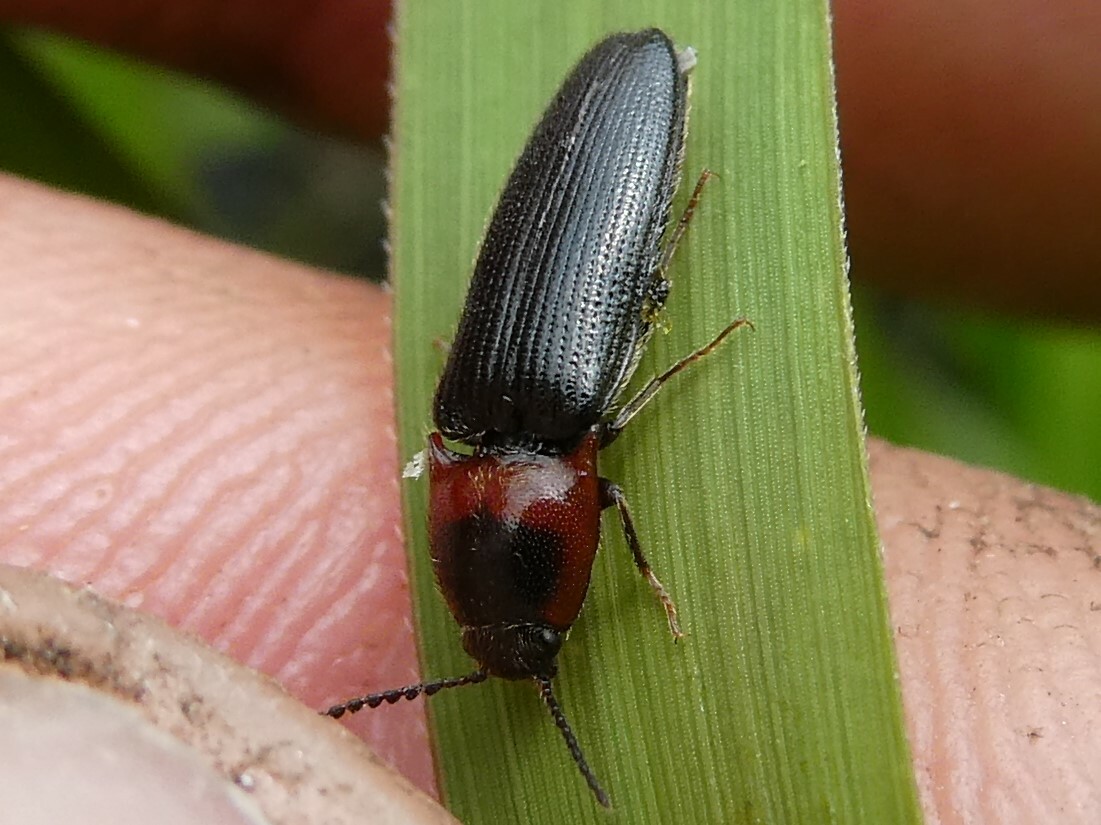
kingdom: Animalia
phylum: Arthropoda
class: Insecta
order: Coleoptera
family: Elateridae
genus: Ampedus
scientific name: Ampedus rubricus
